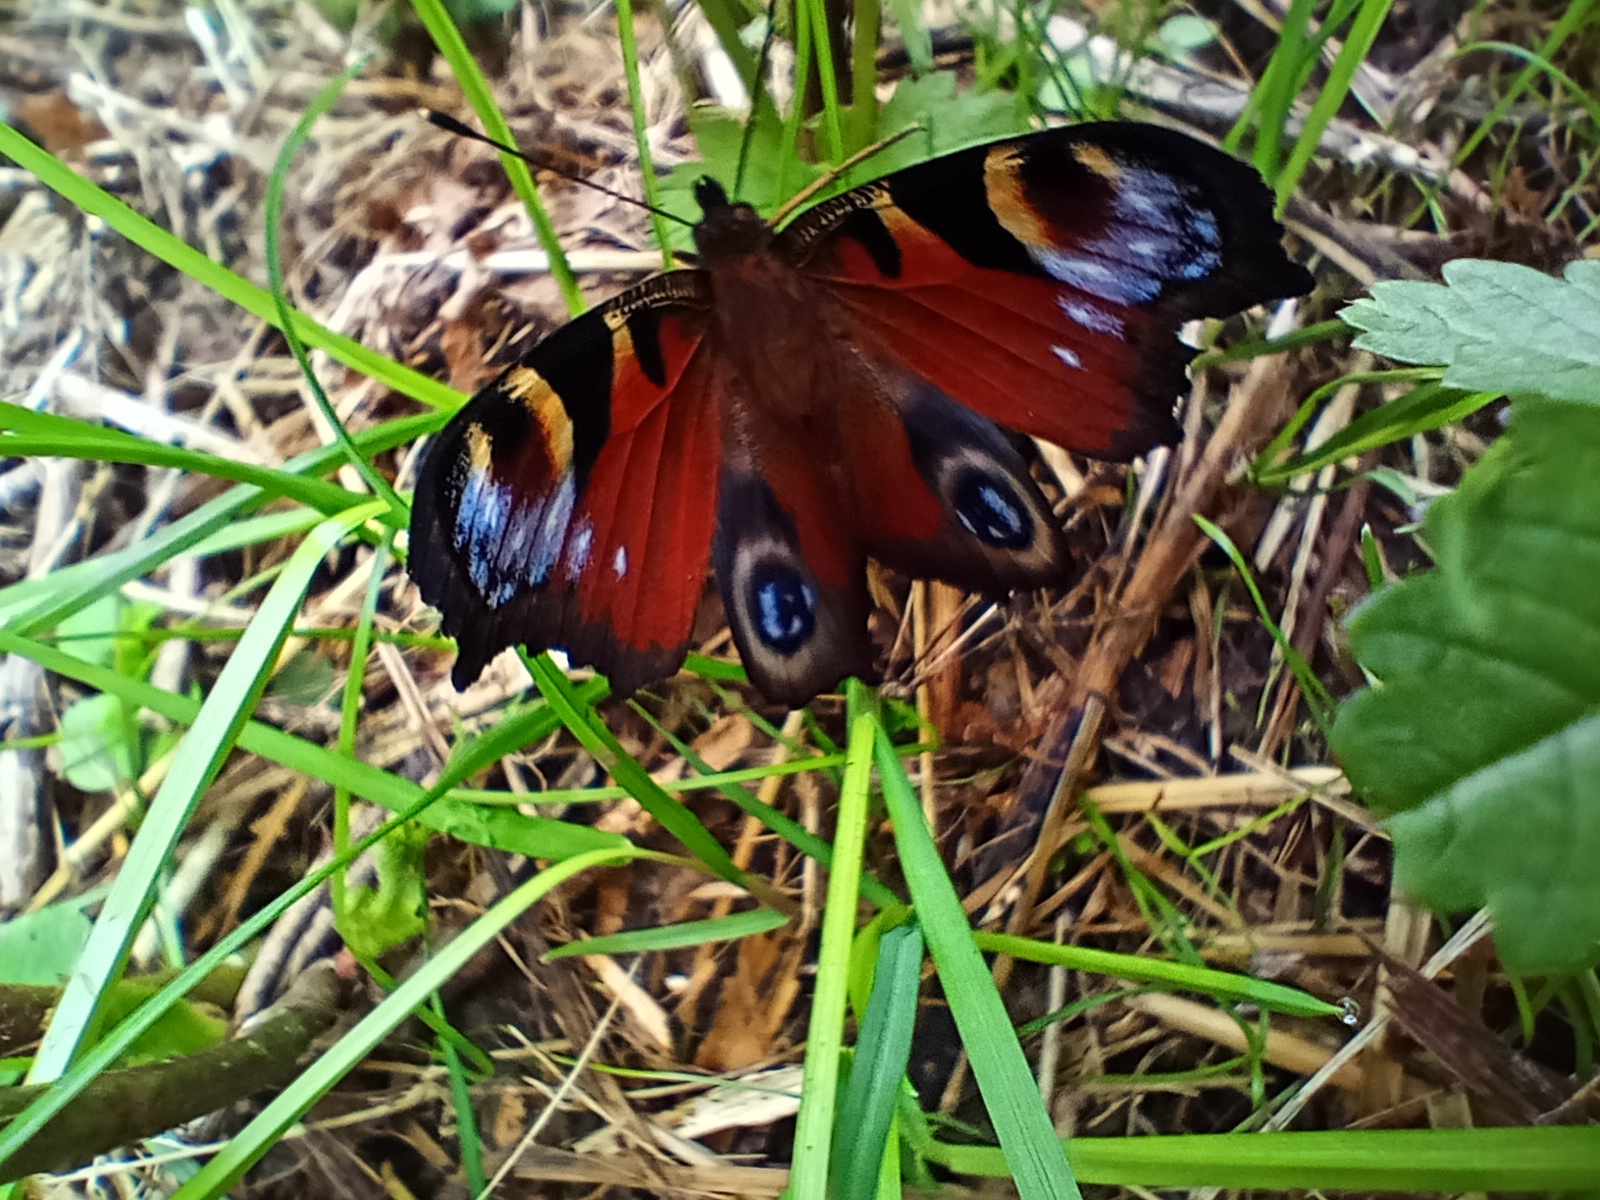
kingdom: Animalia
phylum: Arthropoda
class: Insecta
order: Lepidoptera
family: Nymphalidae
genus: Aglais
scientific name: Aglais io
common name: Peacock
